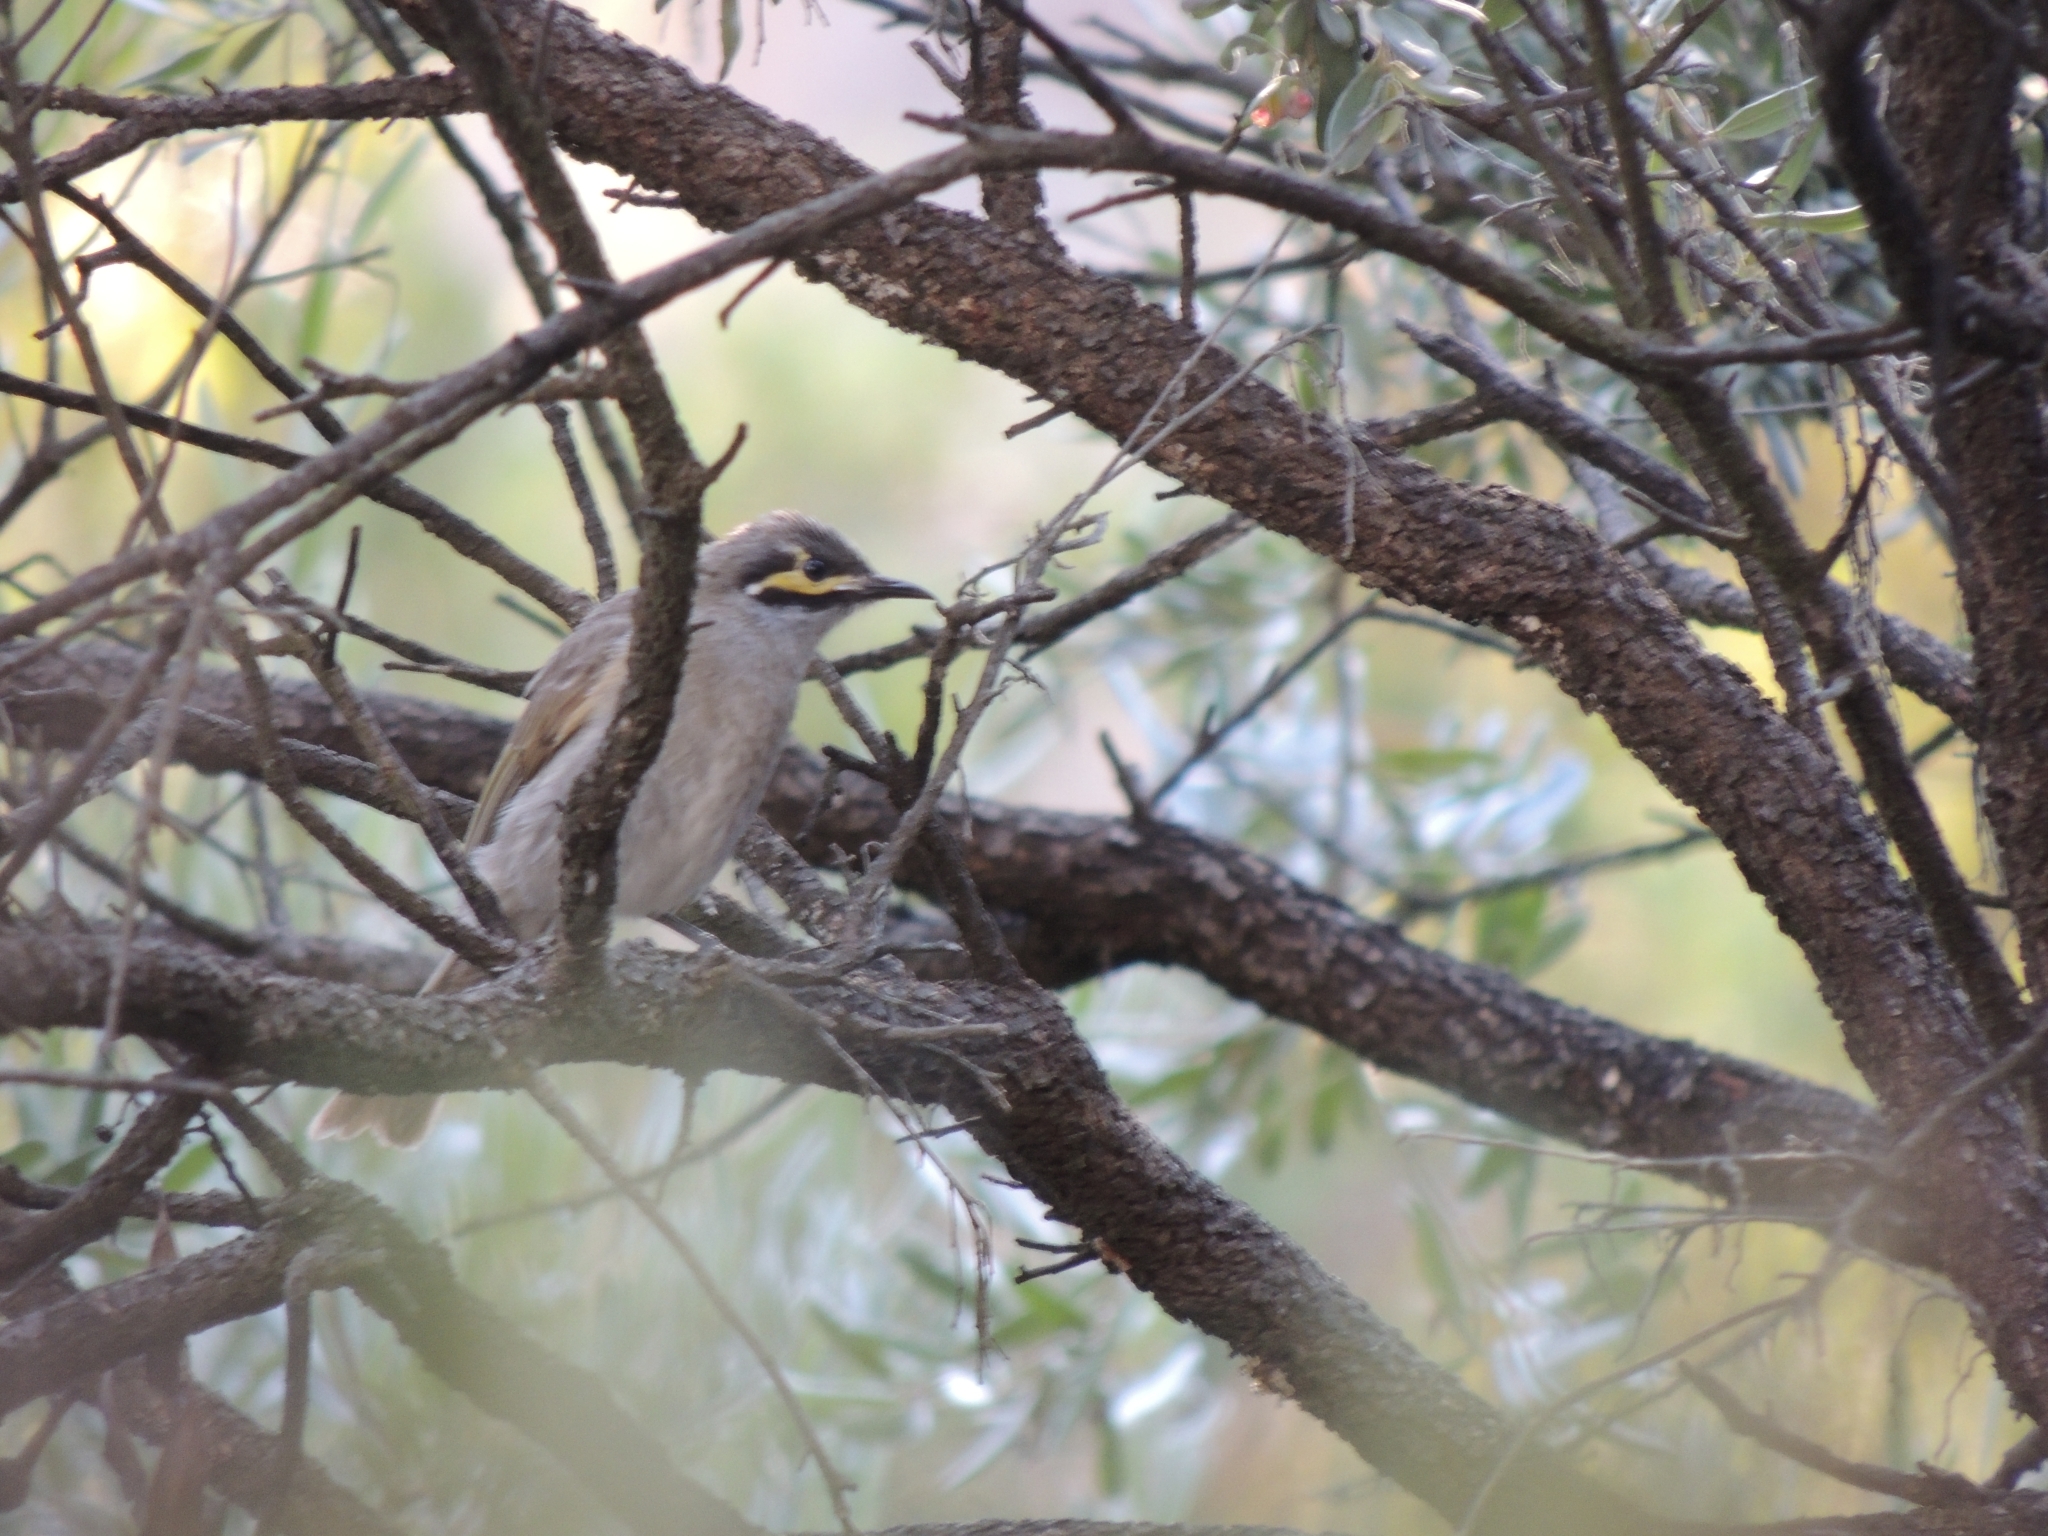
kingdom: Animalia
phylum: Chordata
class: Aves
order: Passeriformes
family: Meliphagidae
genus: Caligavis
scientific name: Caligavis chrysops
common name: Yellow-faced honeyeater
